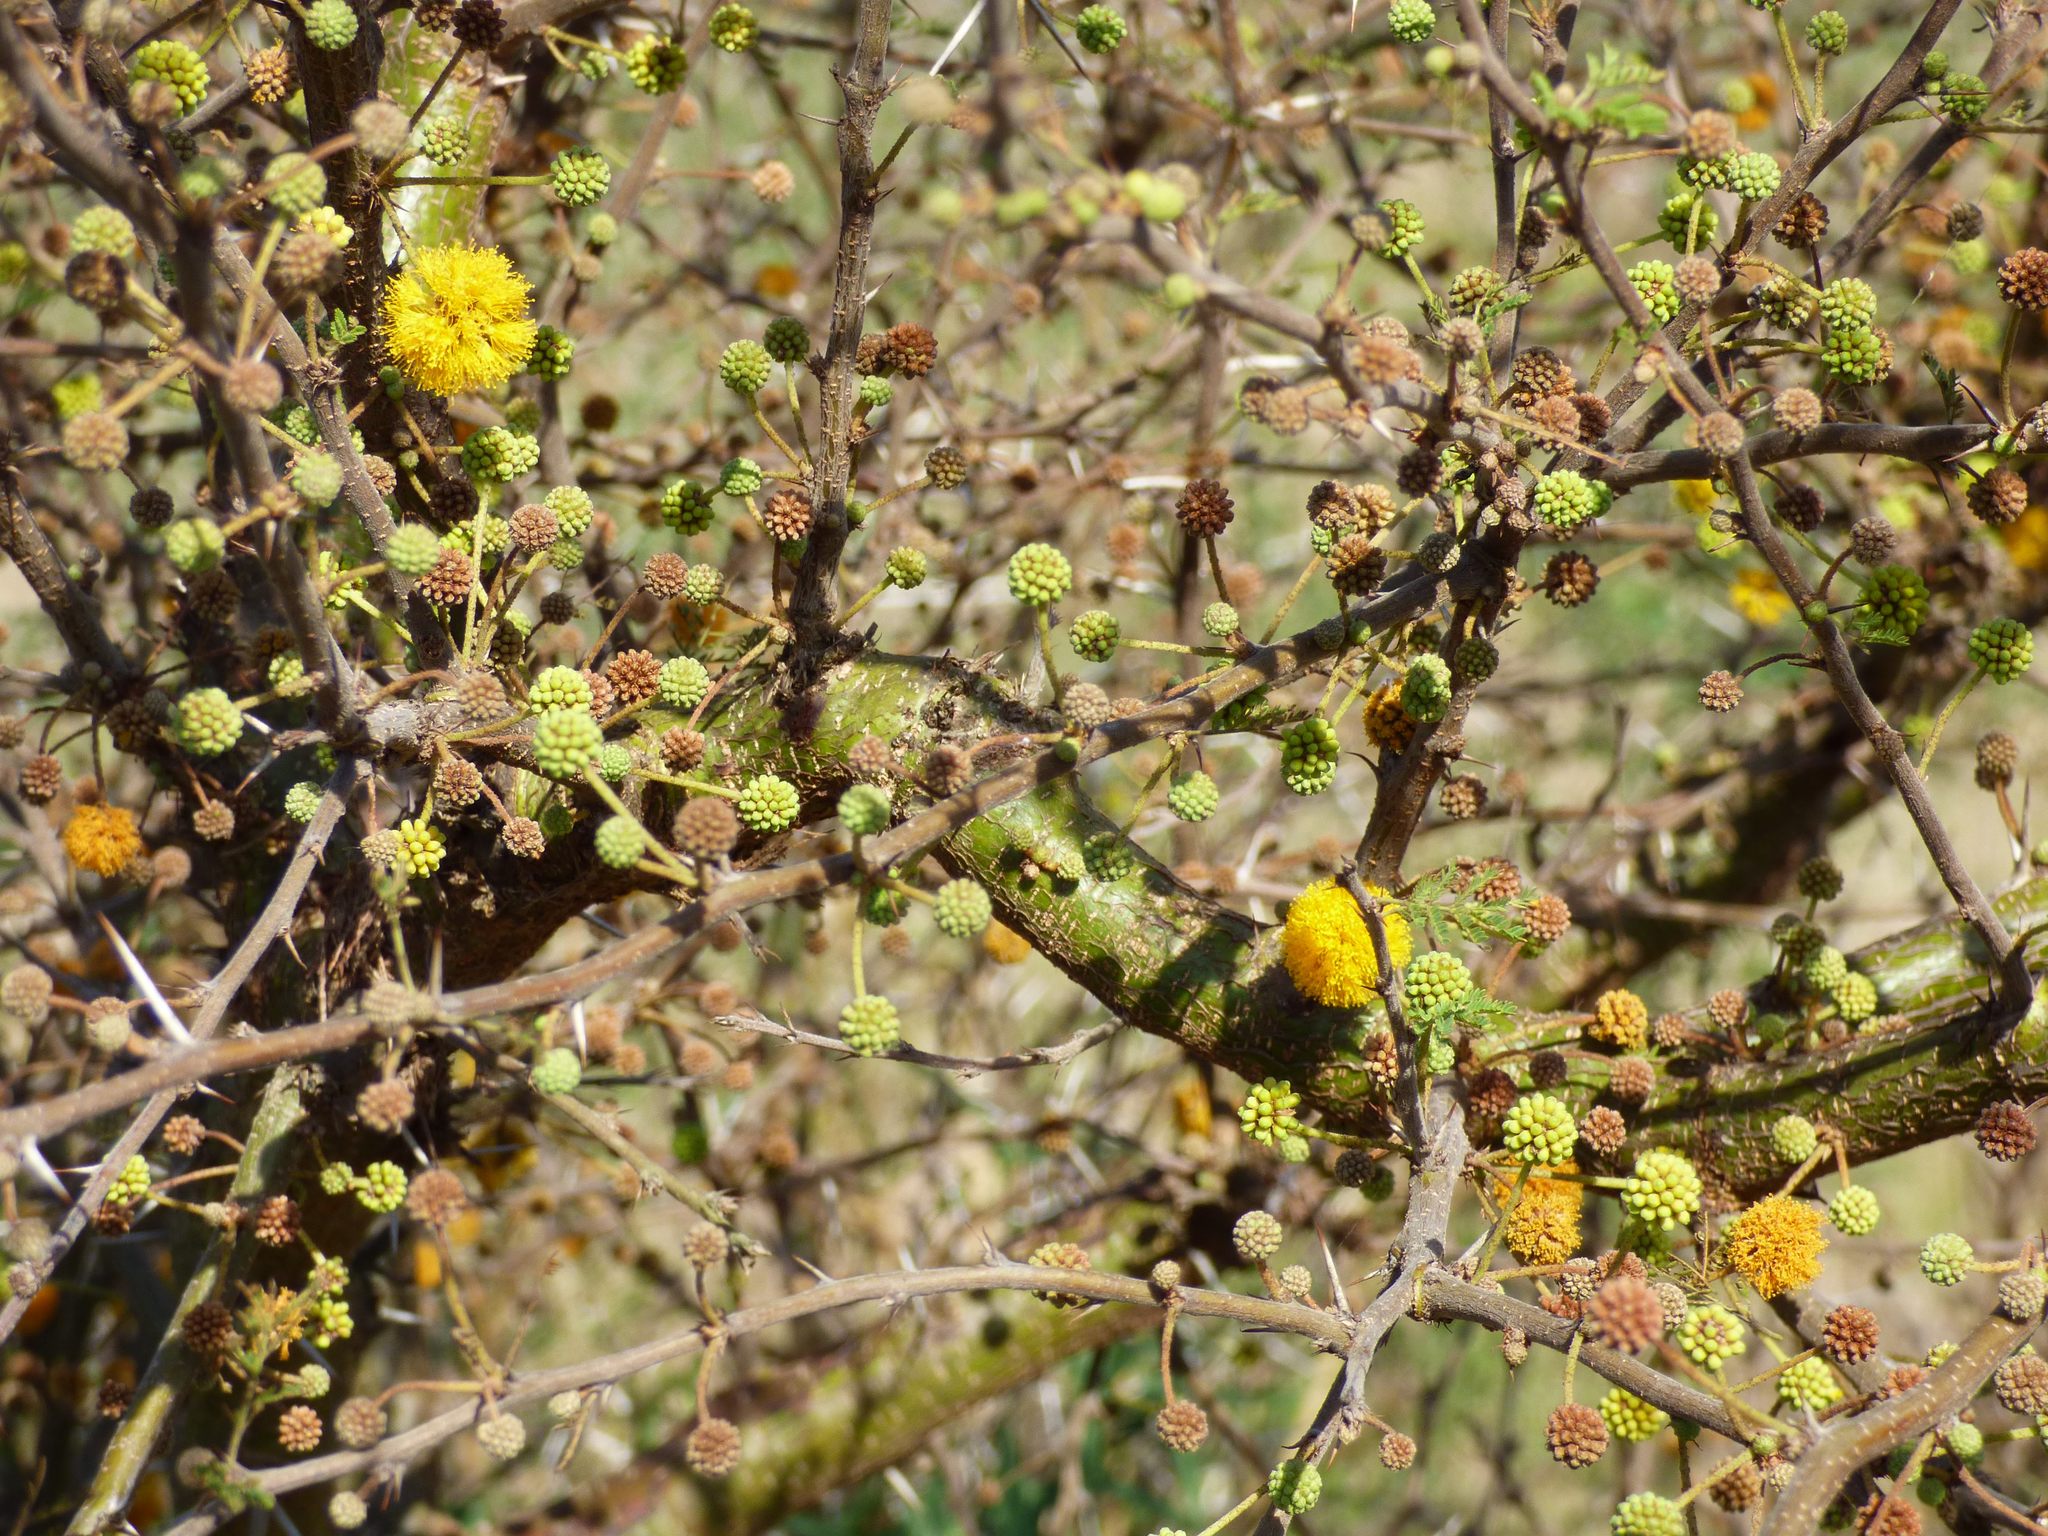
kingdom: Plantae
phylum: Tracheophyta
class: Magnoliopsida
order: Fabales
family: Fabaceae
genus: Vachellia
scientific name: Vachellia caven
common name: Roman cassie
